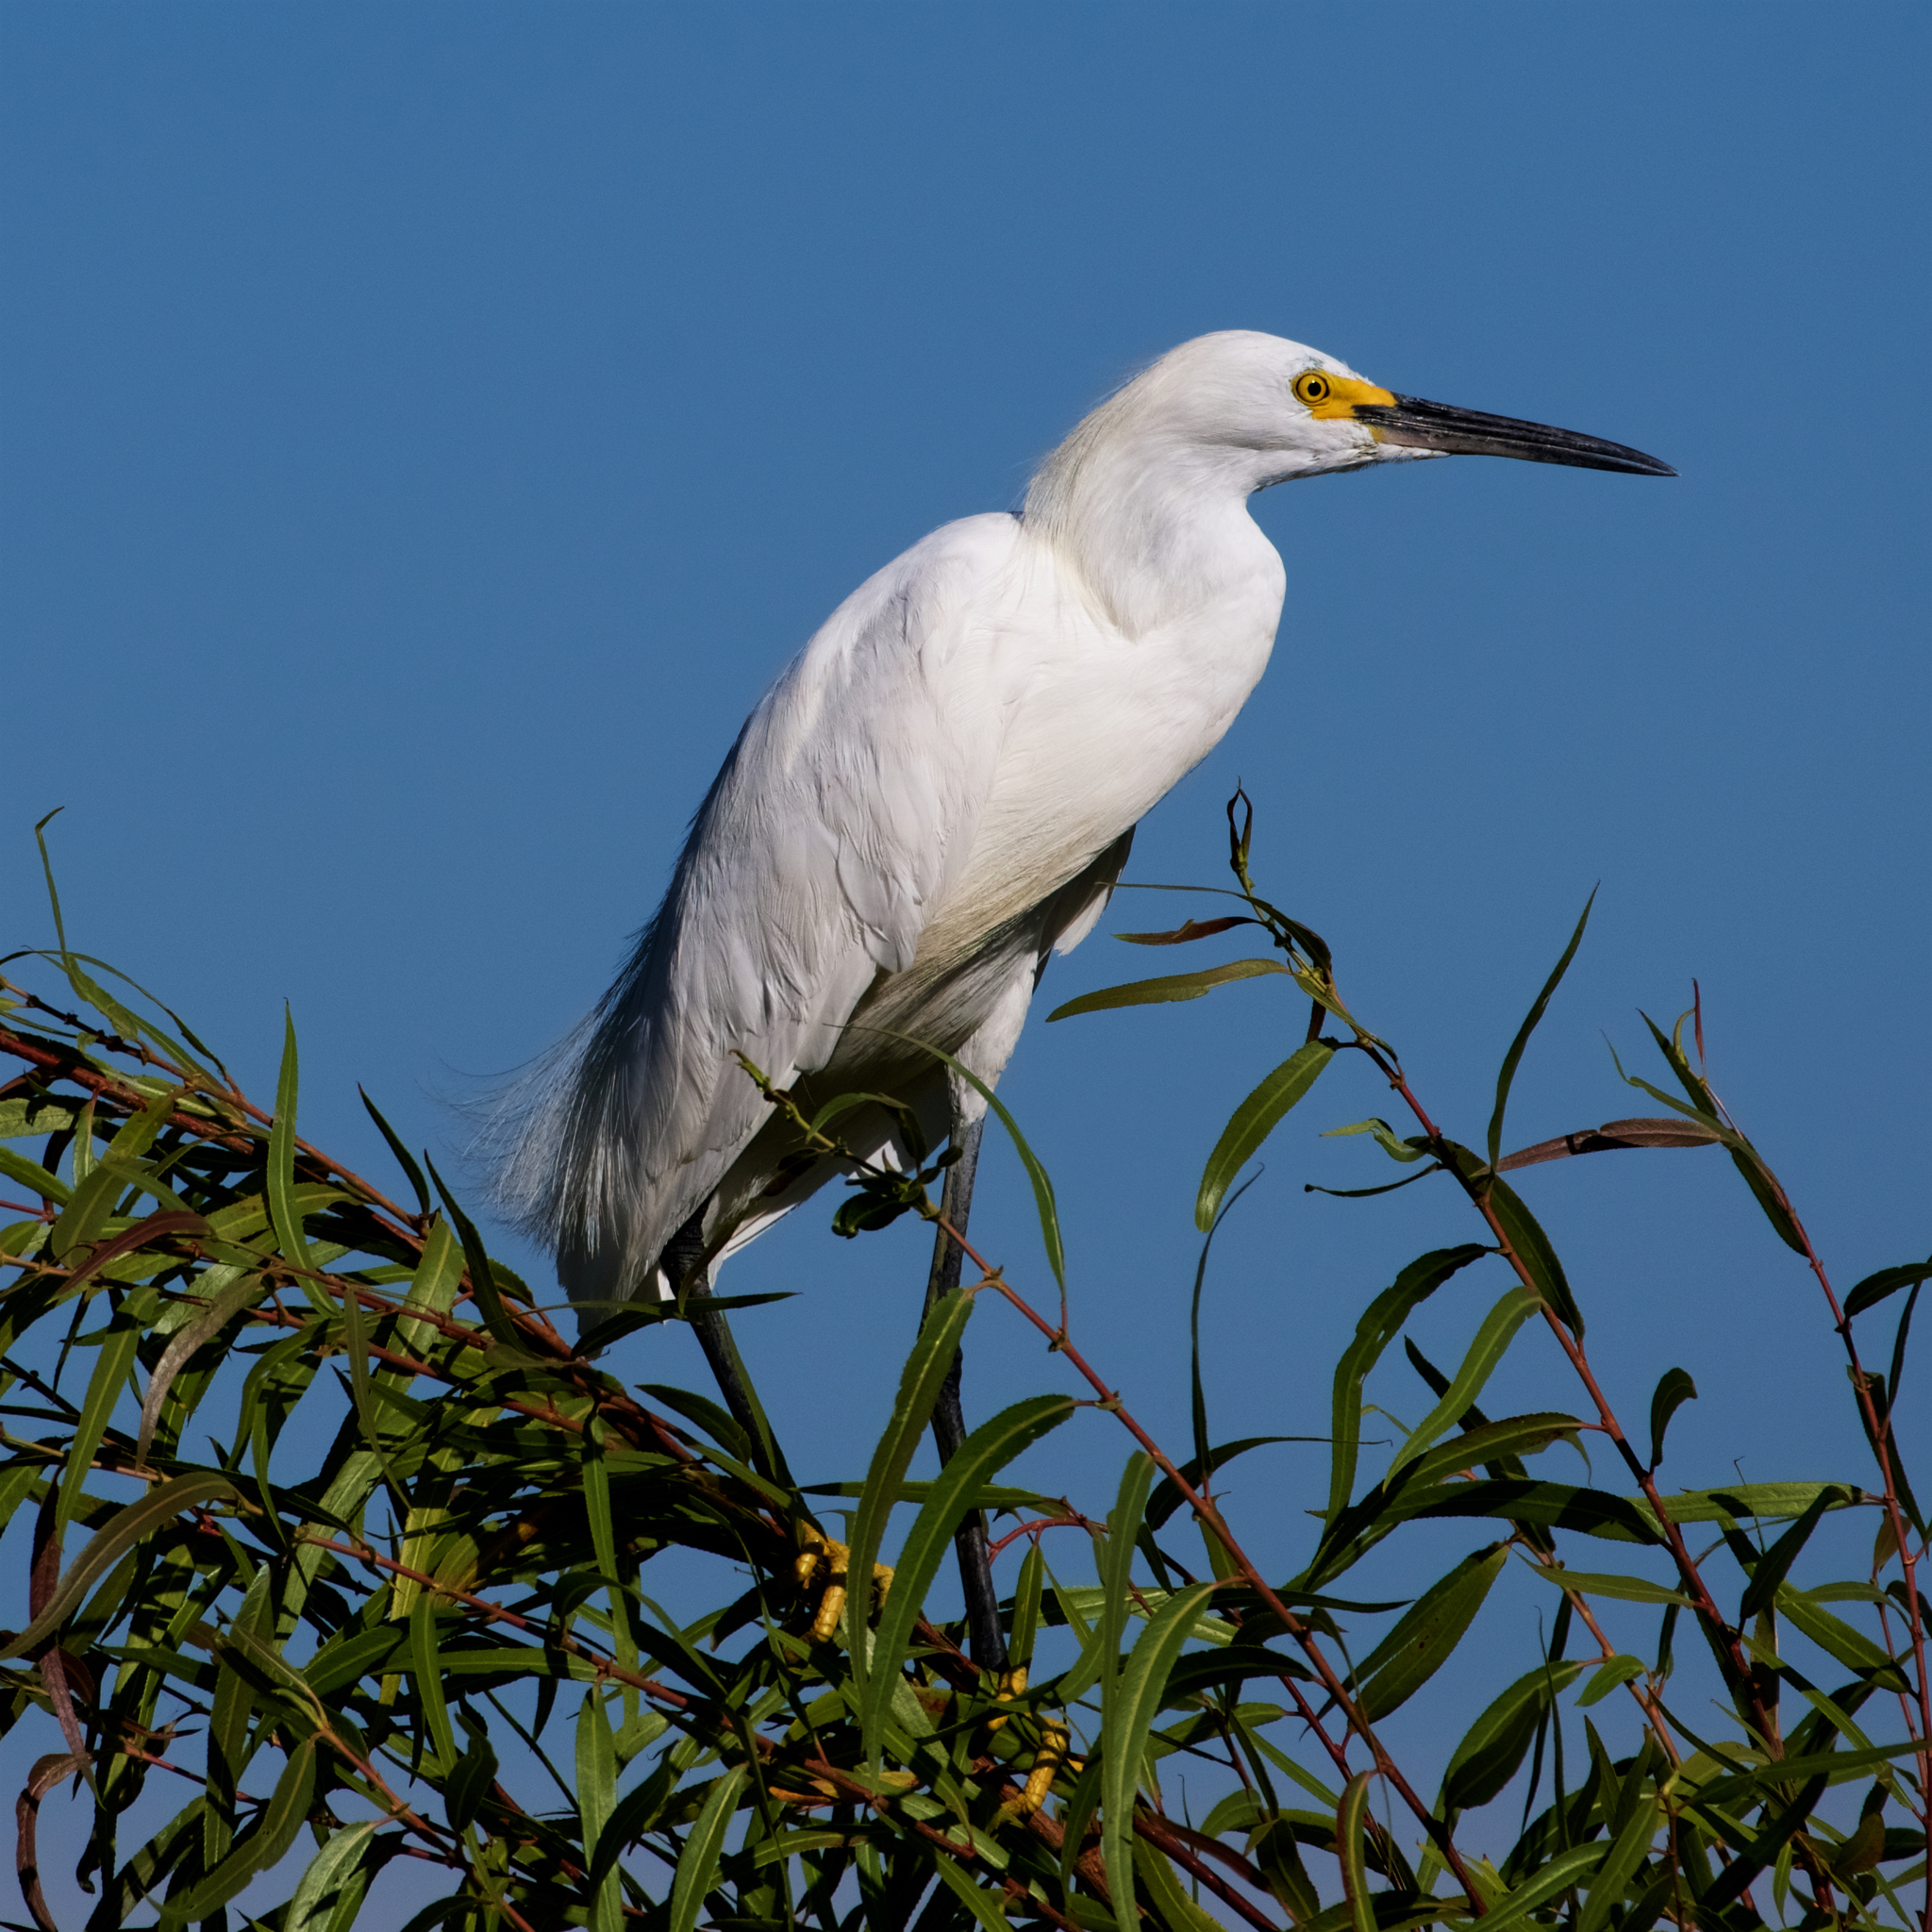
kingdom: Animalia
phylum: Chordata
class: Aves
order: Pelecaniformes
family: Ardeidae
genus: Egretta
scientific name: Egretta thula
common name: Snowy egret
